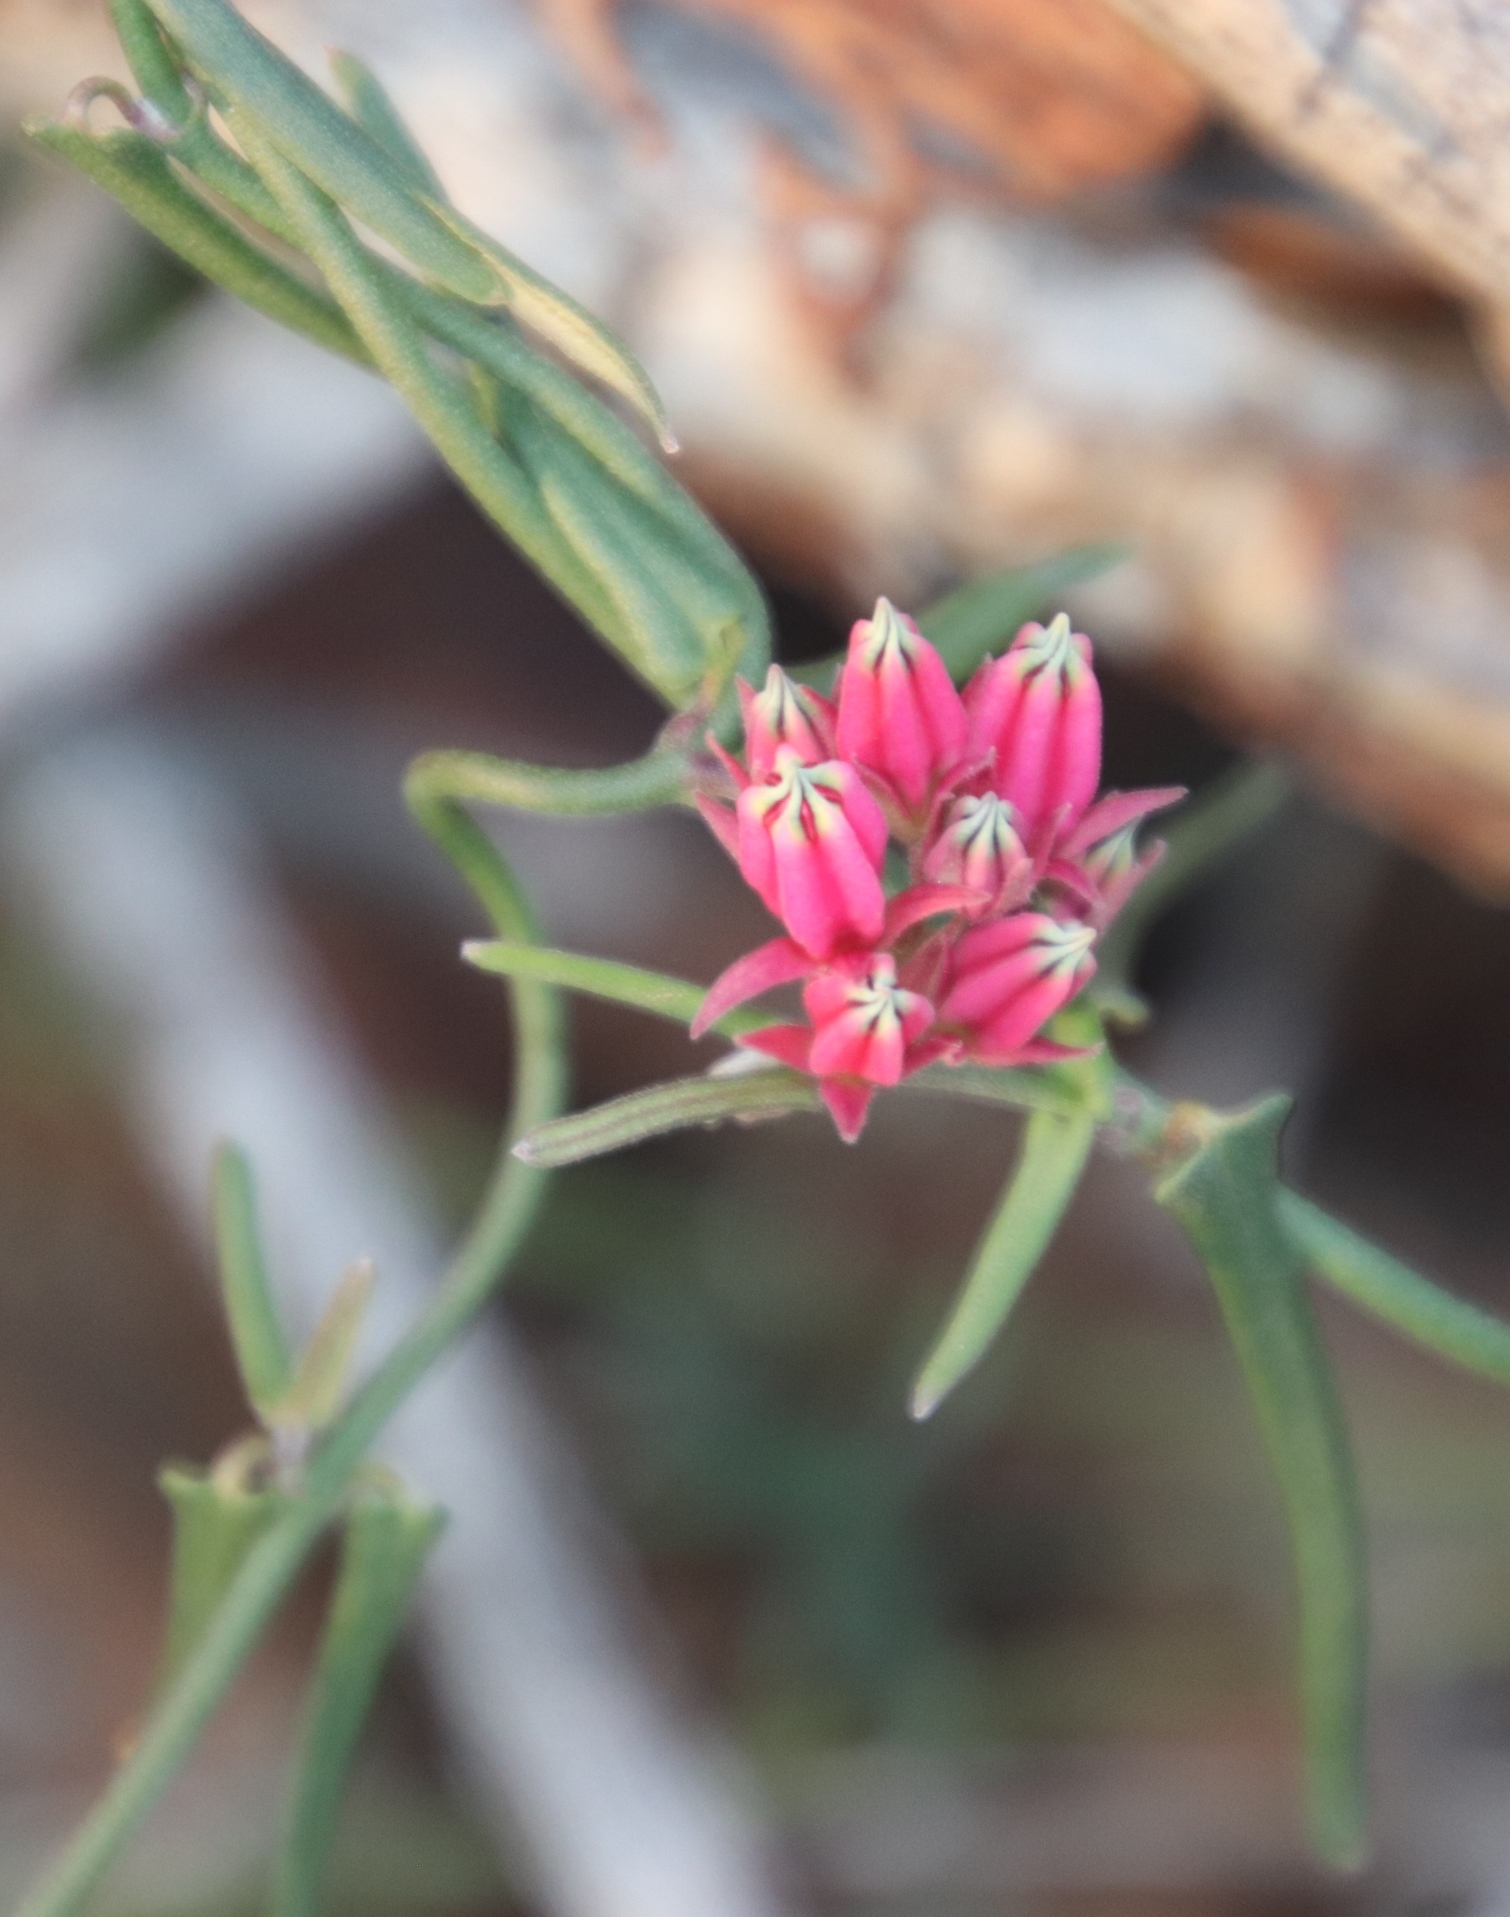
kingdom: Plantae
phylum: Tracheophyta
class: Magnoliopsida
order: Gentianales
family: Apocynaceae
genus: Microloma
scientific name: Microloma sagittatum
